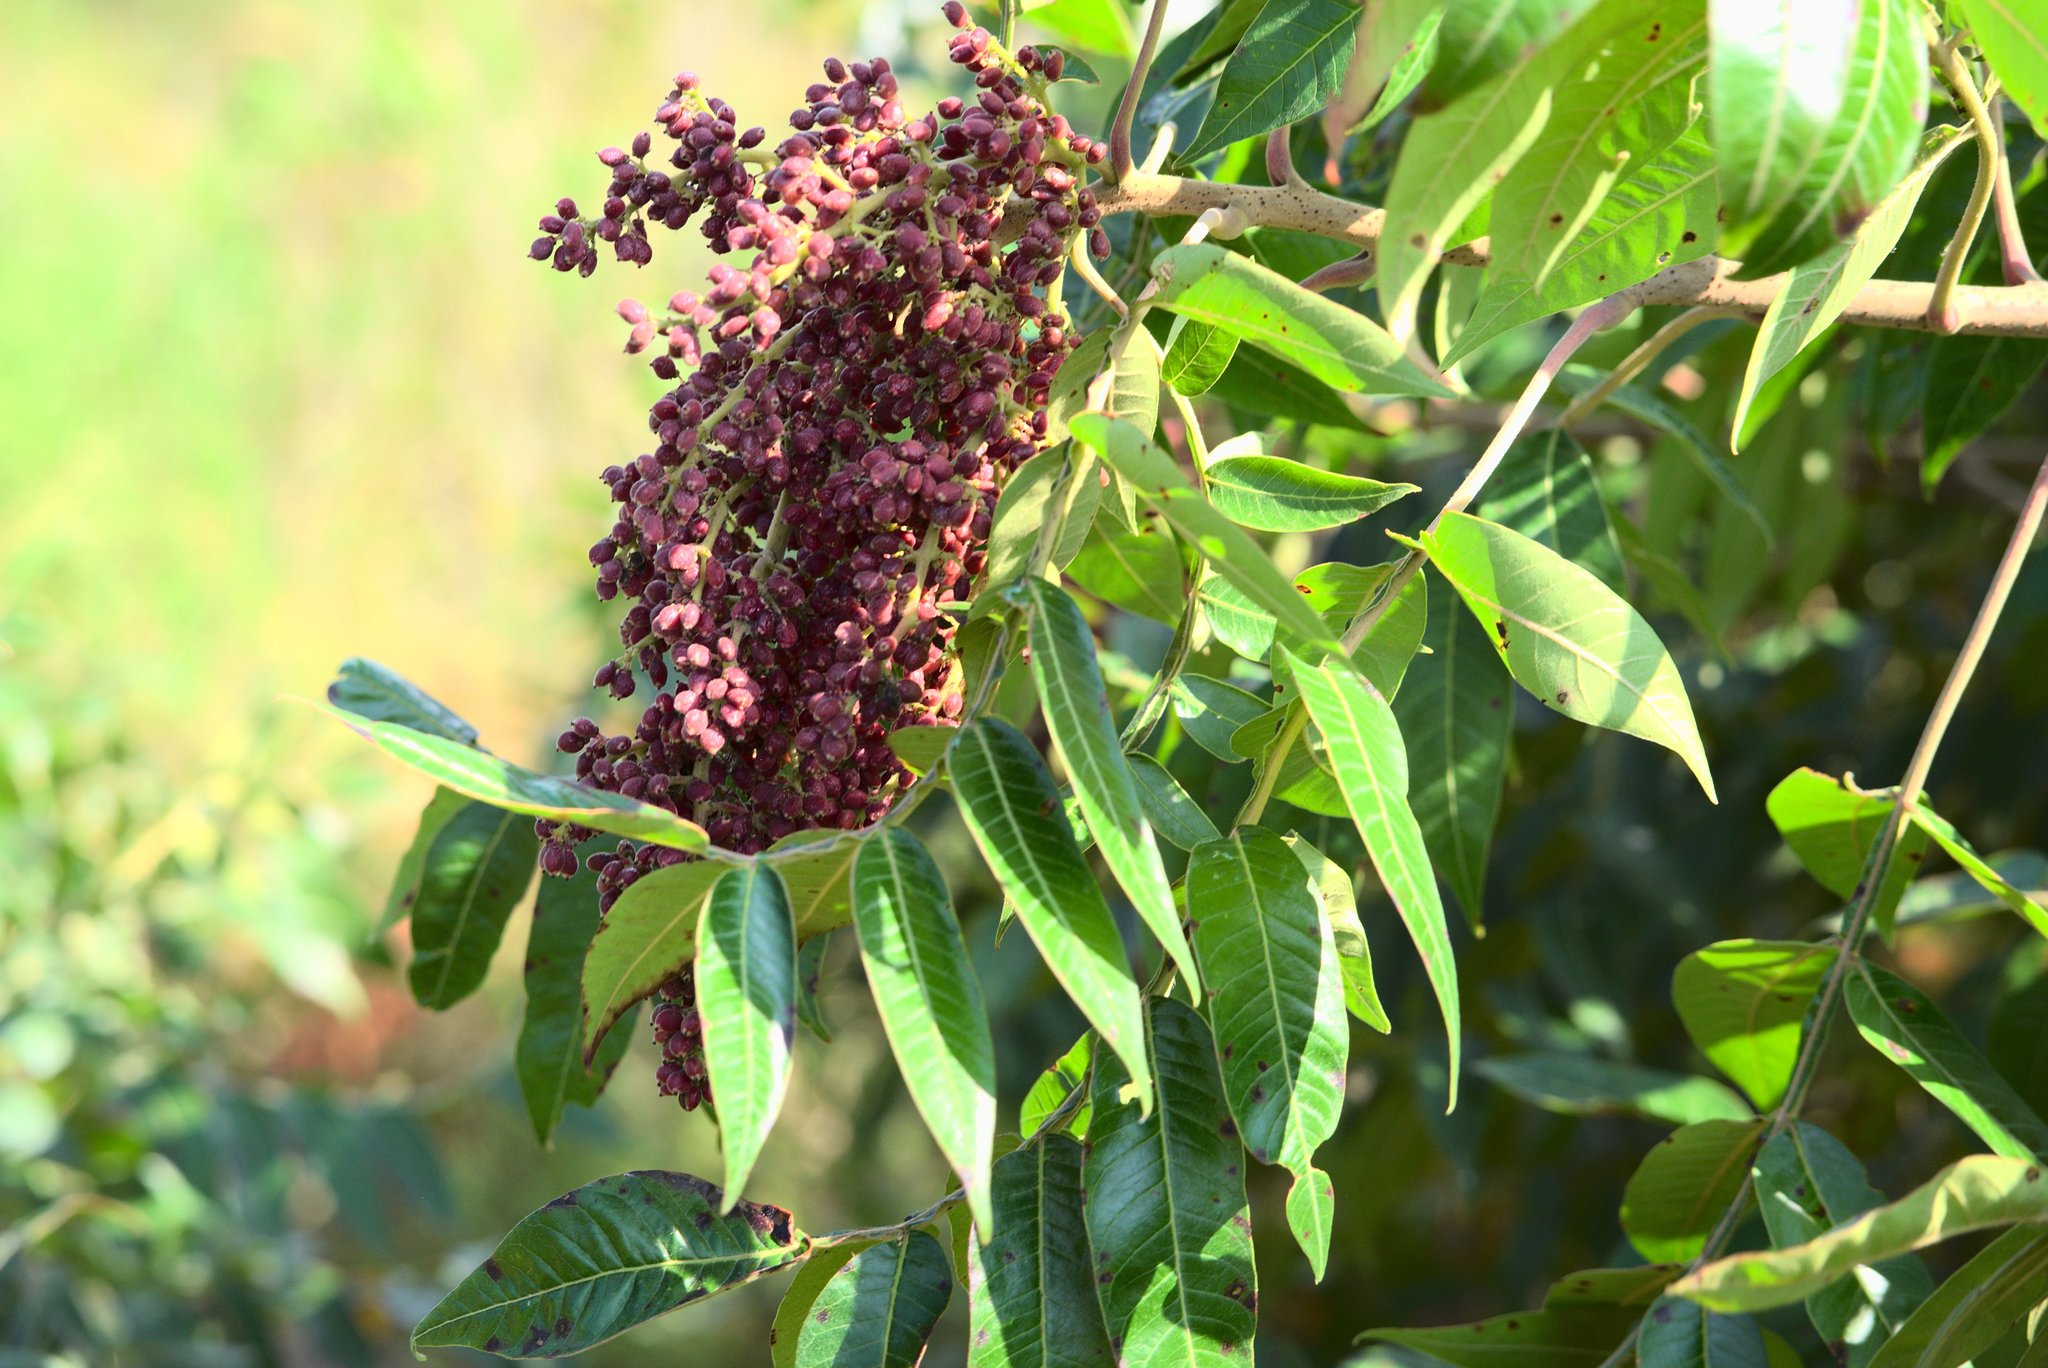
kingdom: Plantae
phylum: Tracheophyta
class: Magnoliopsida
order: Sapindales
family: Anacardiaceae
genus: Rhus
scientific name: Rhus copallina
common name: Shining sumac
